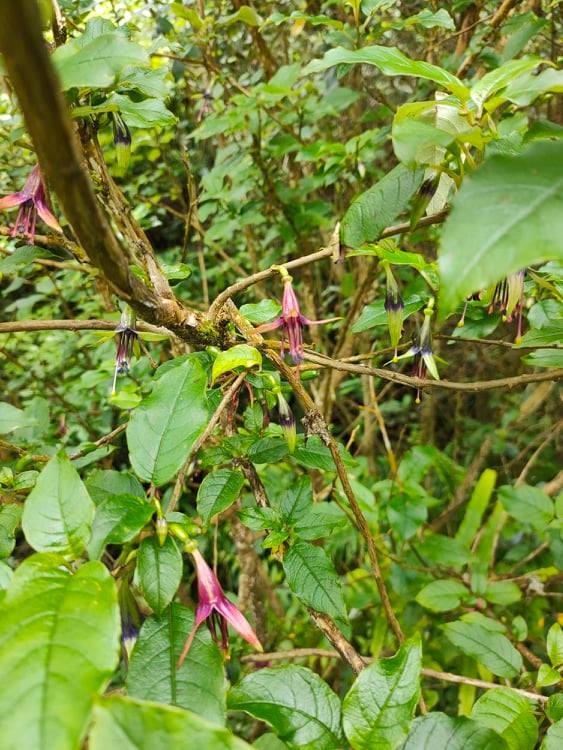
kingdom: Plantae
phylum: Tracheophyta
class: Magnoliopsida
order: Myrtales
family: Onagraceae
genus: Fuchsia
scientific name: Fuchsia excorticata
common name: Tree fuchsia
